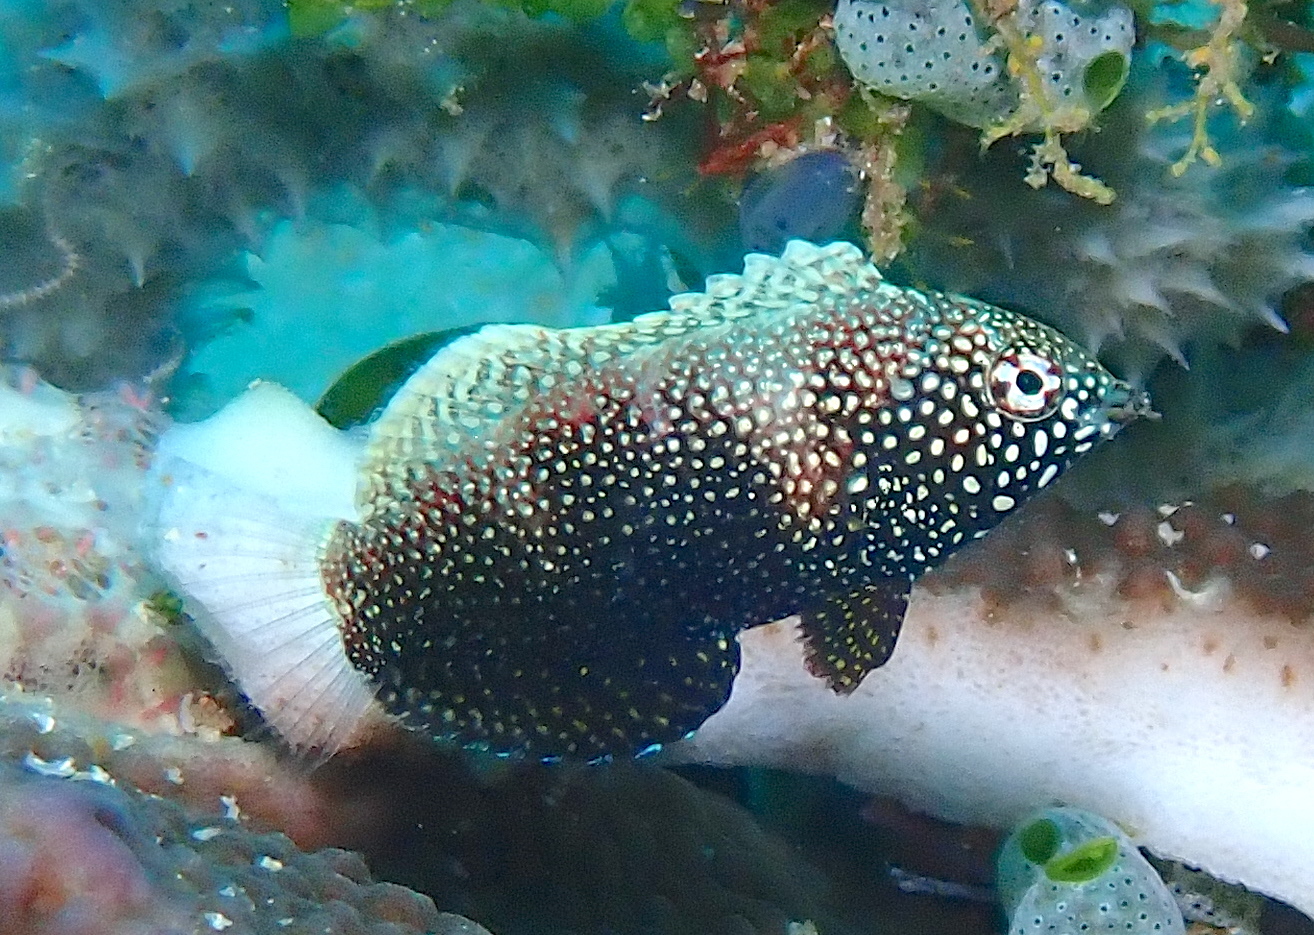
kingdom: Animalia
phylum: Chordata
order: Perciformes
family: Labridae
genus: Macropharyngodon
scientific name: Macropharyngodon negrosensis
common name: Black leopard wrasse
